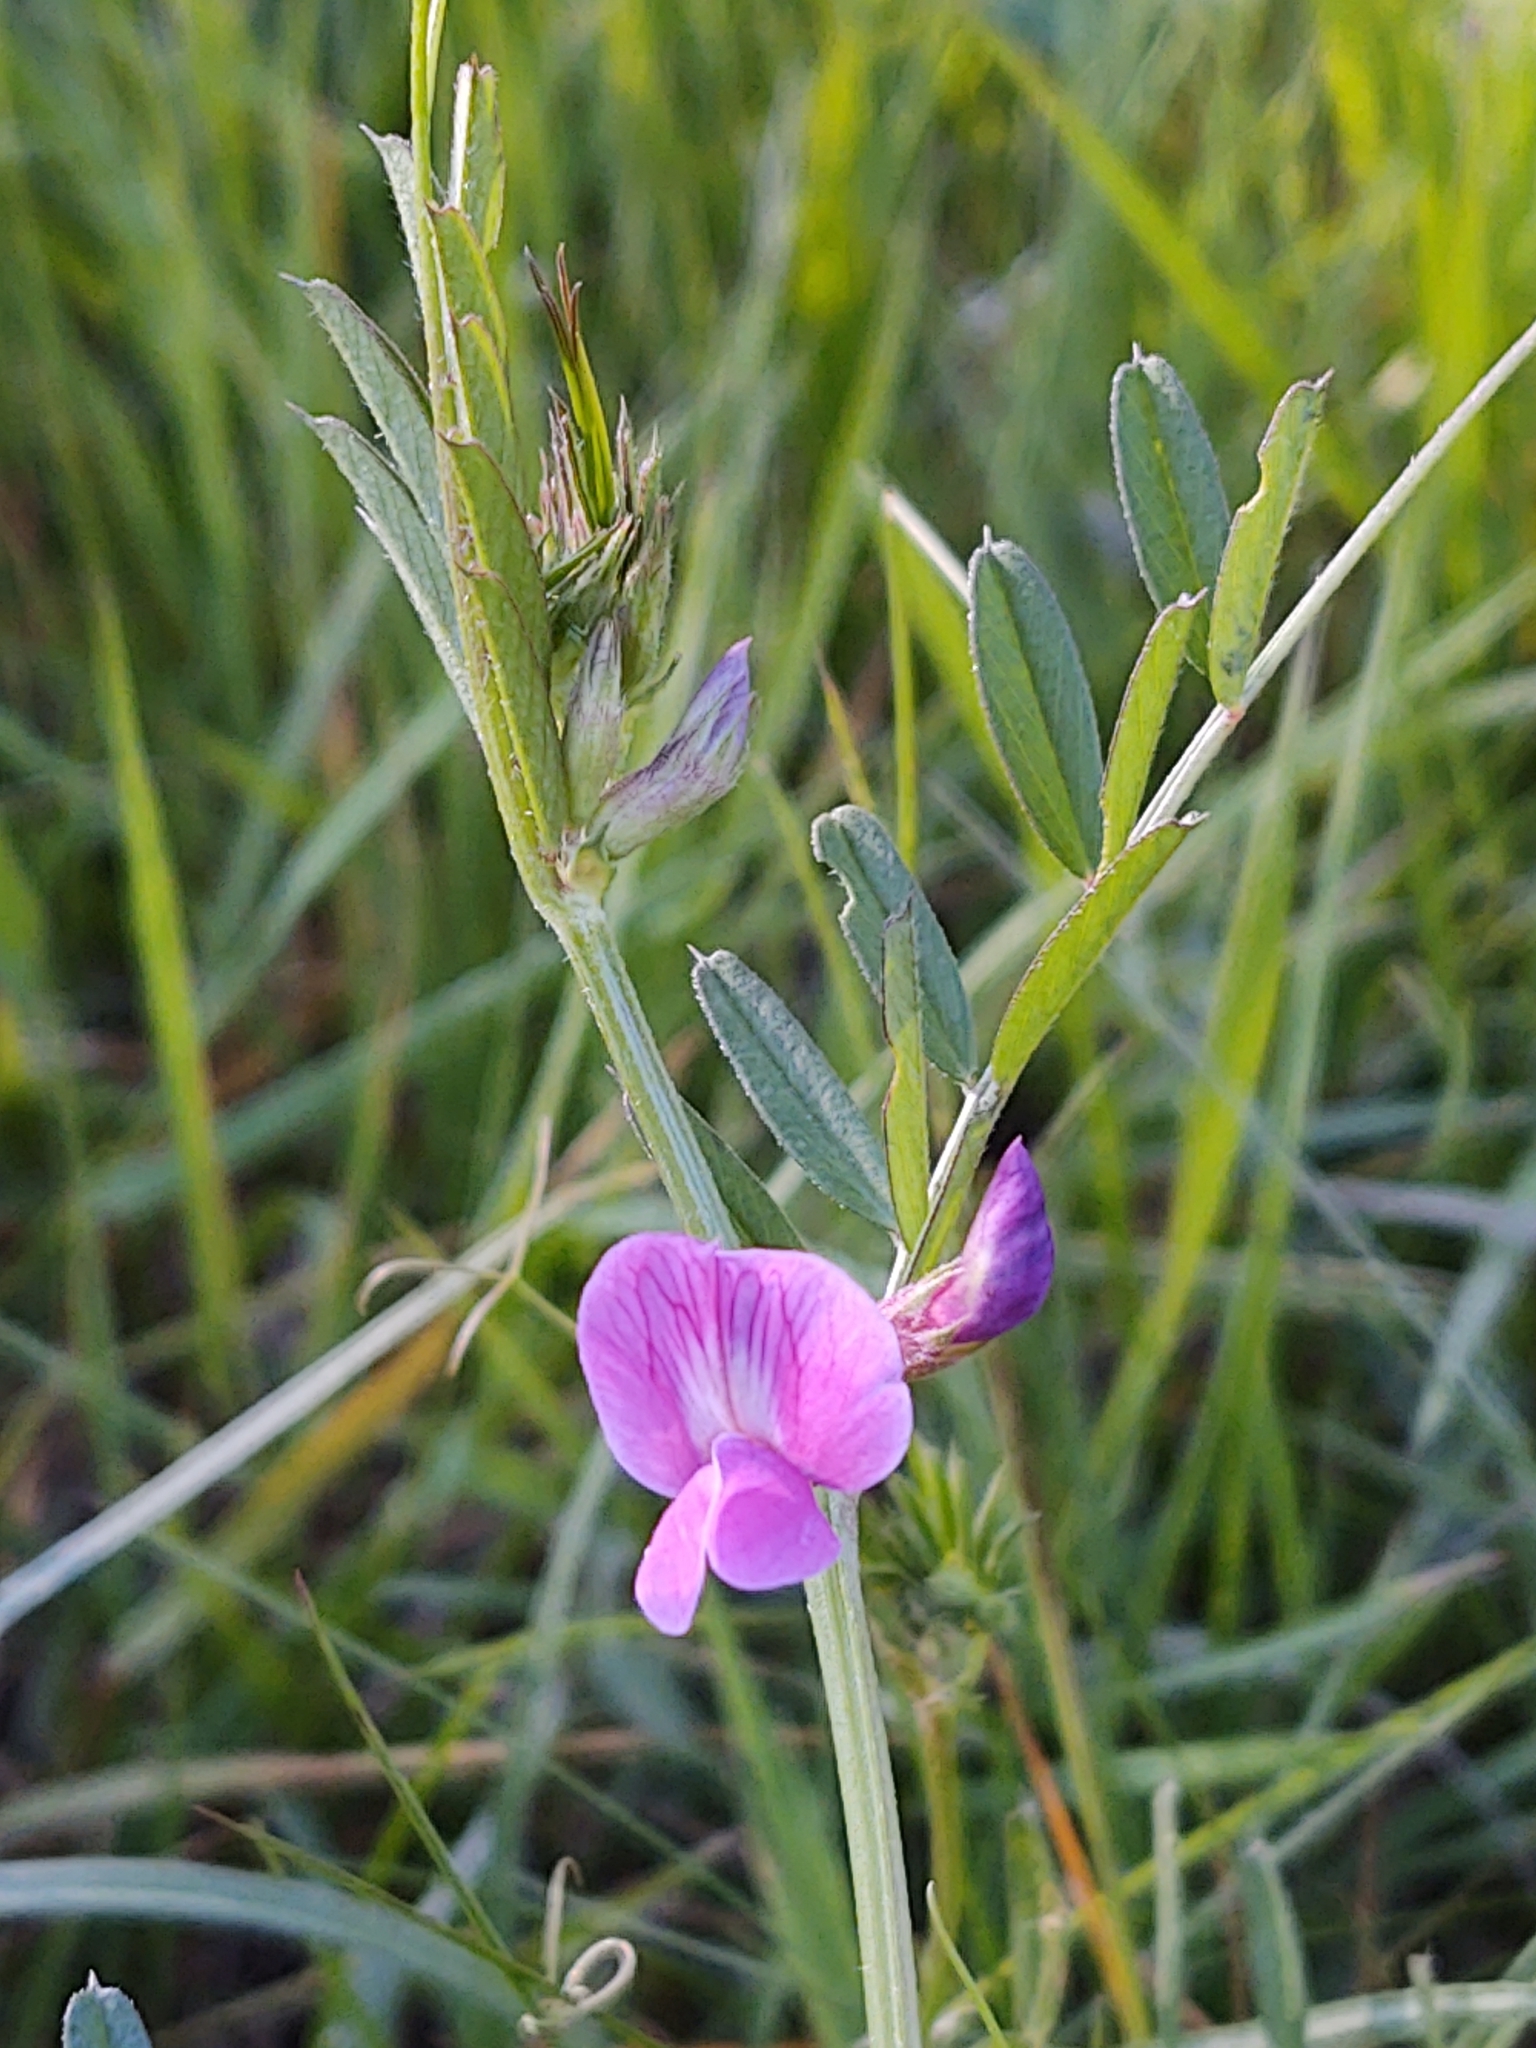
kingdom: Plantae
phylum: Tracheophyta
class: Magnoliopsida
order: Fabales
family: Fabaceae
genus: Vicia
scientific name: Vicia sativa
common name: Garden vetch
